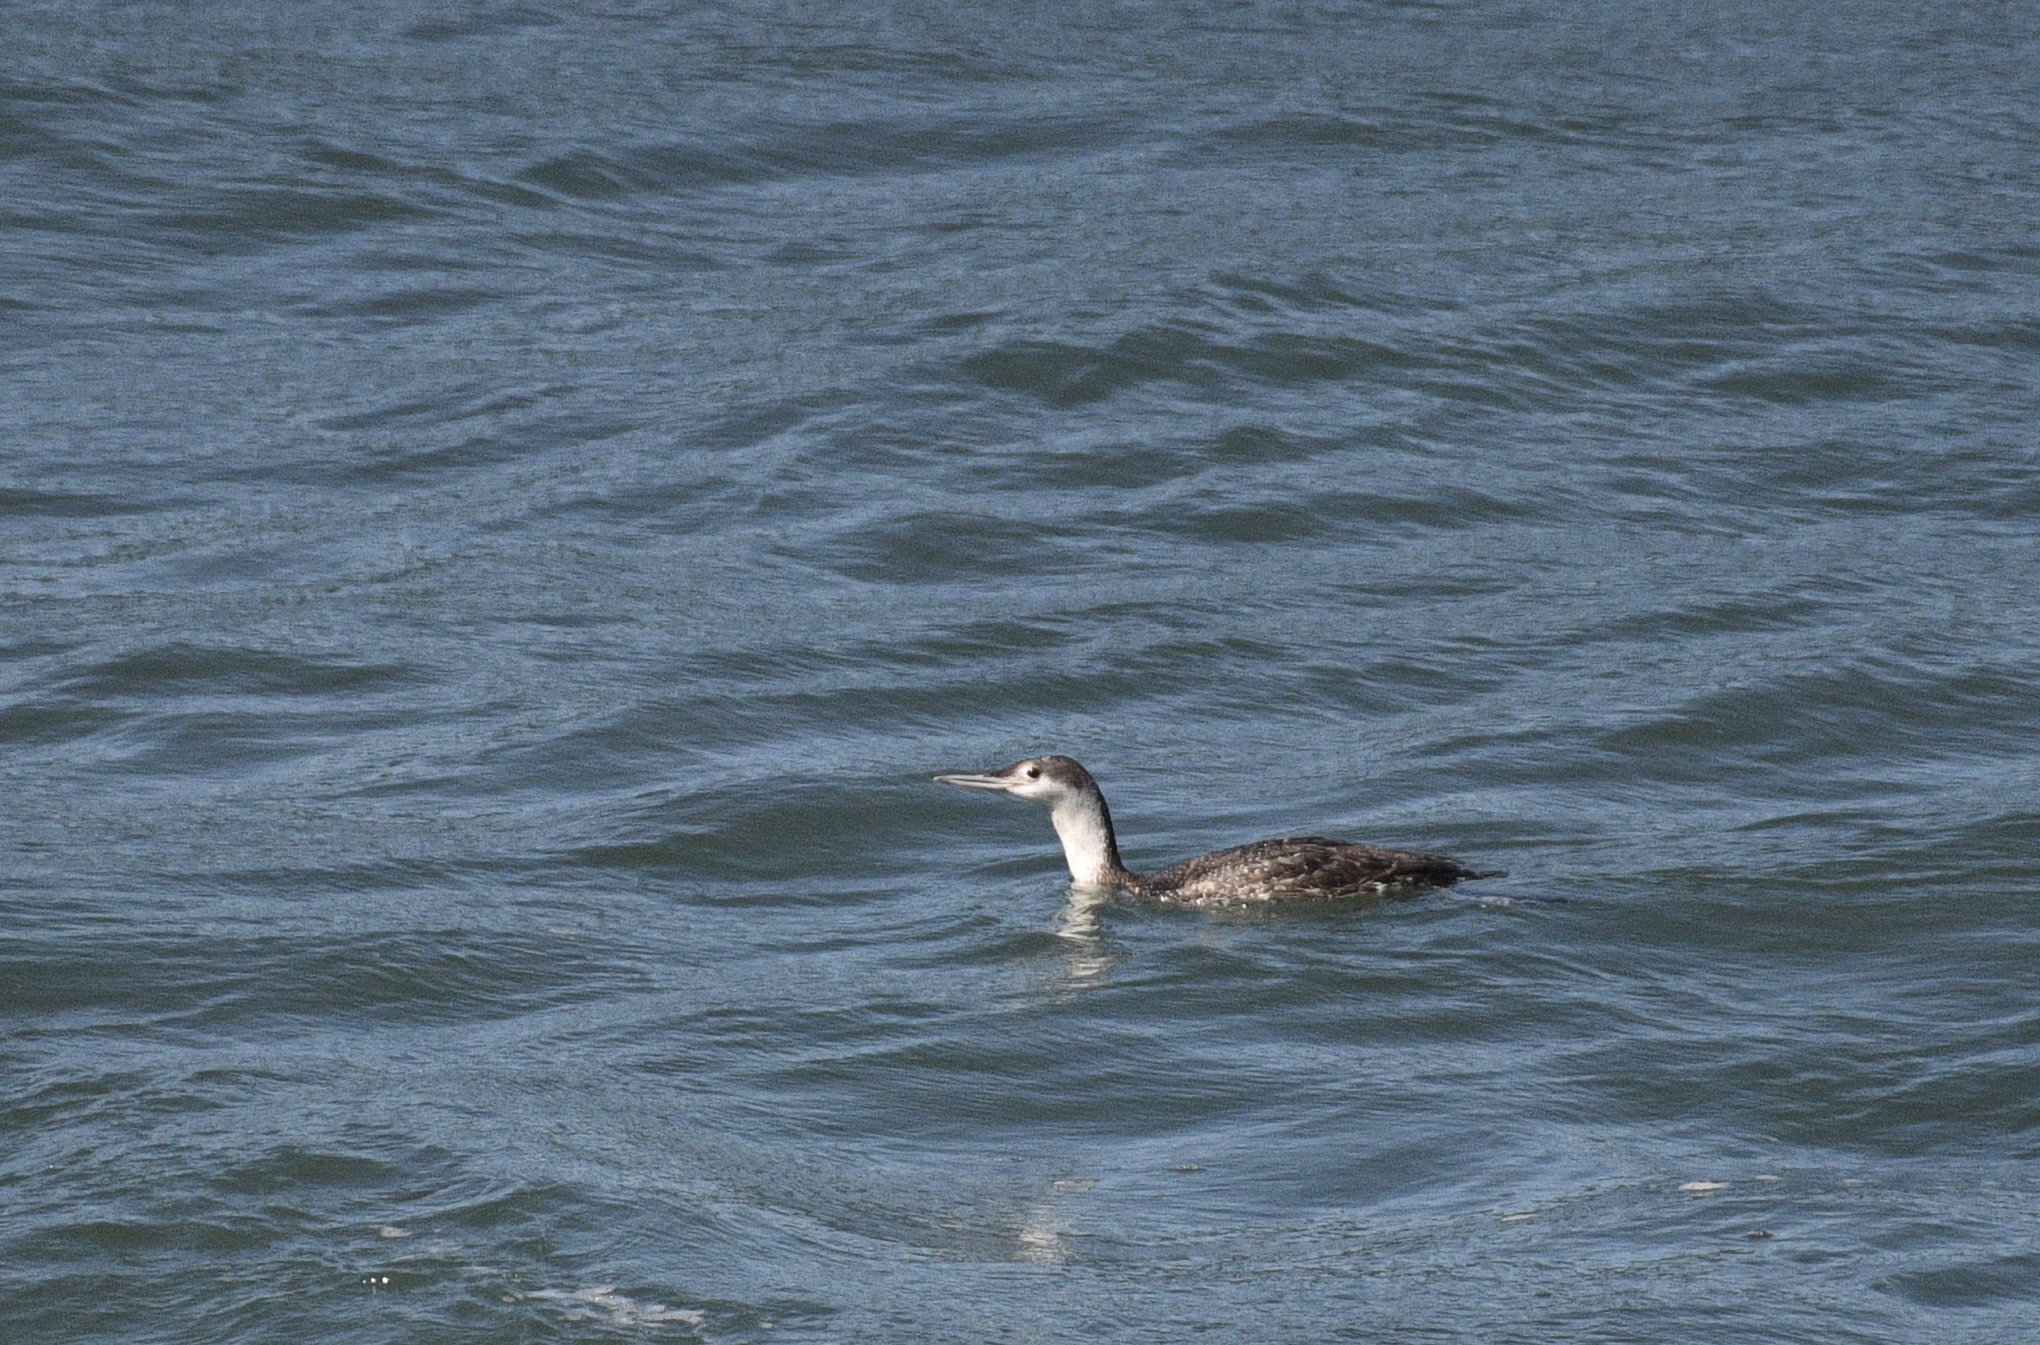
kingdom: Animalia
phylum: Chordata
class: Aves
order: Gaviiformes
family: Gaviidae
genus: Gavia
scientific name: Gavia stellata
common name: Red-throated loon
